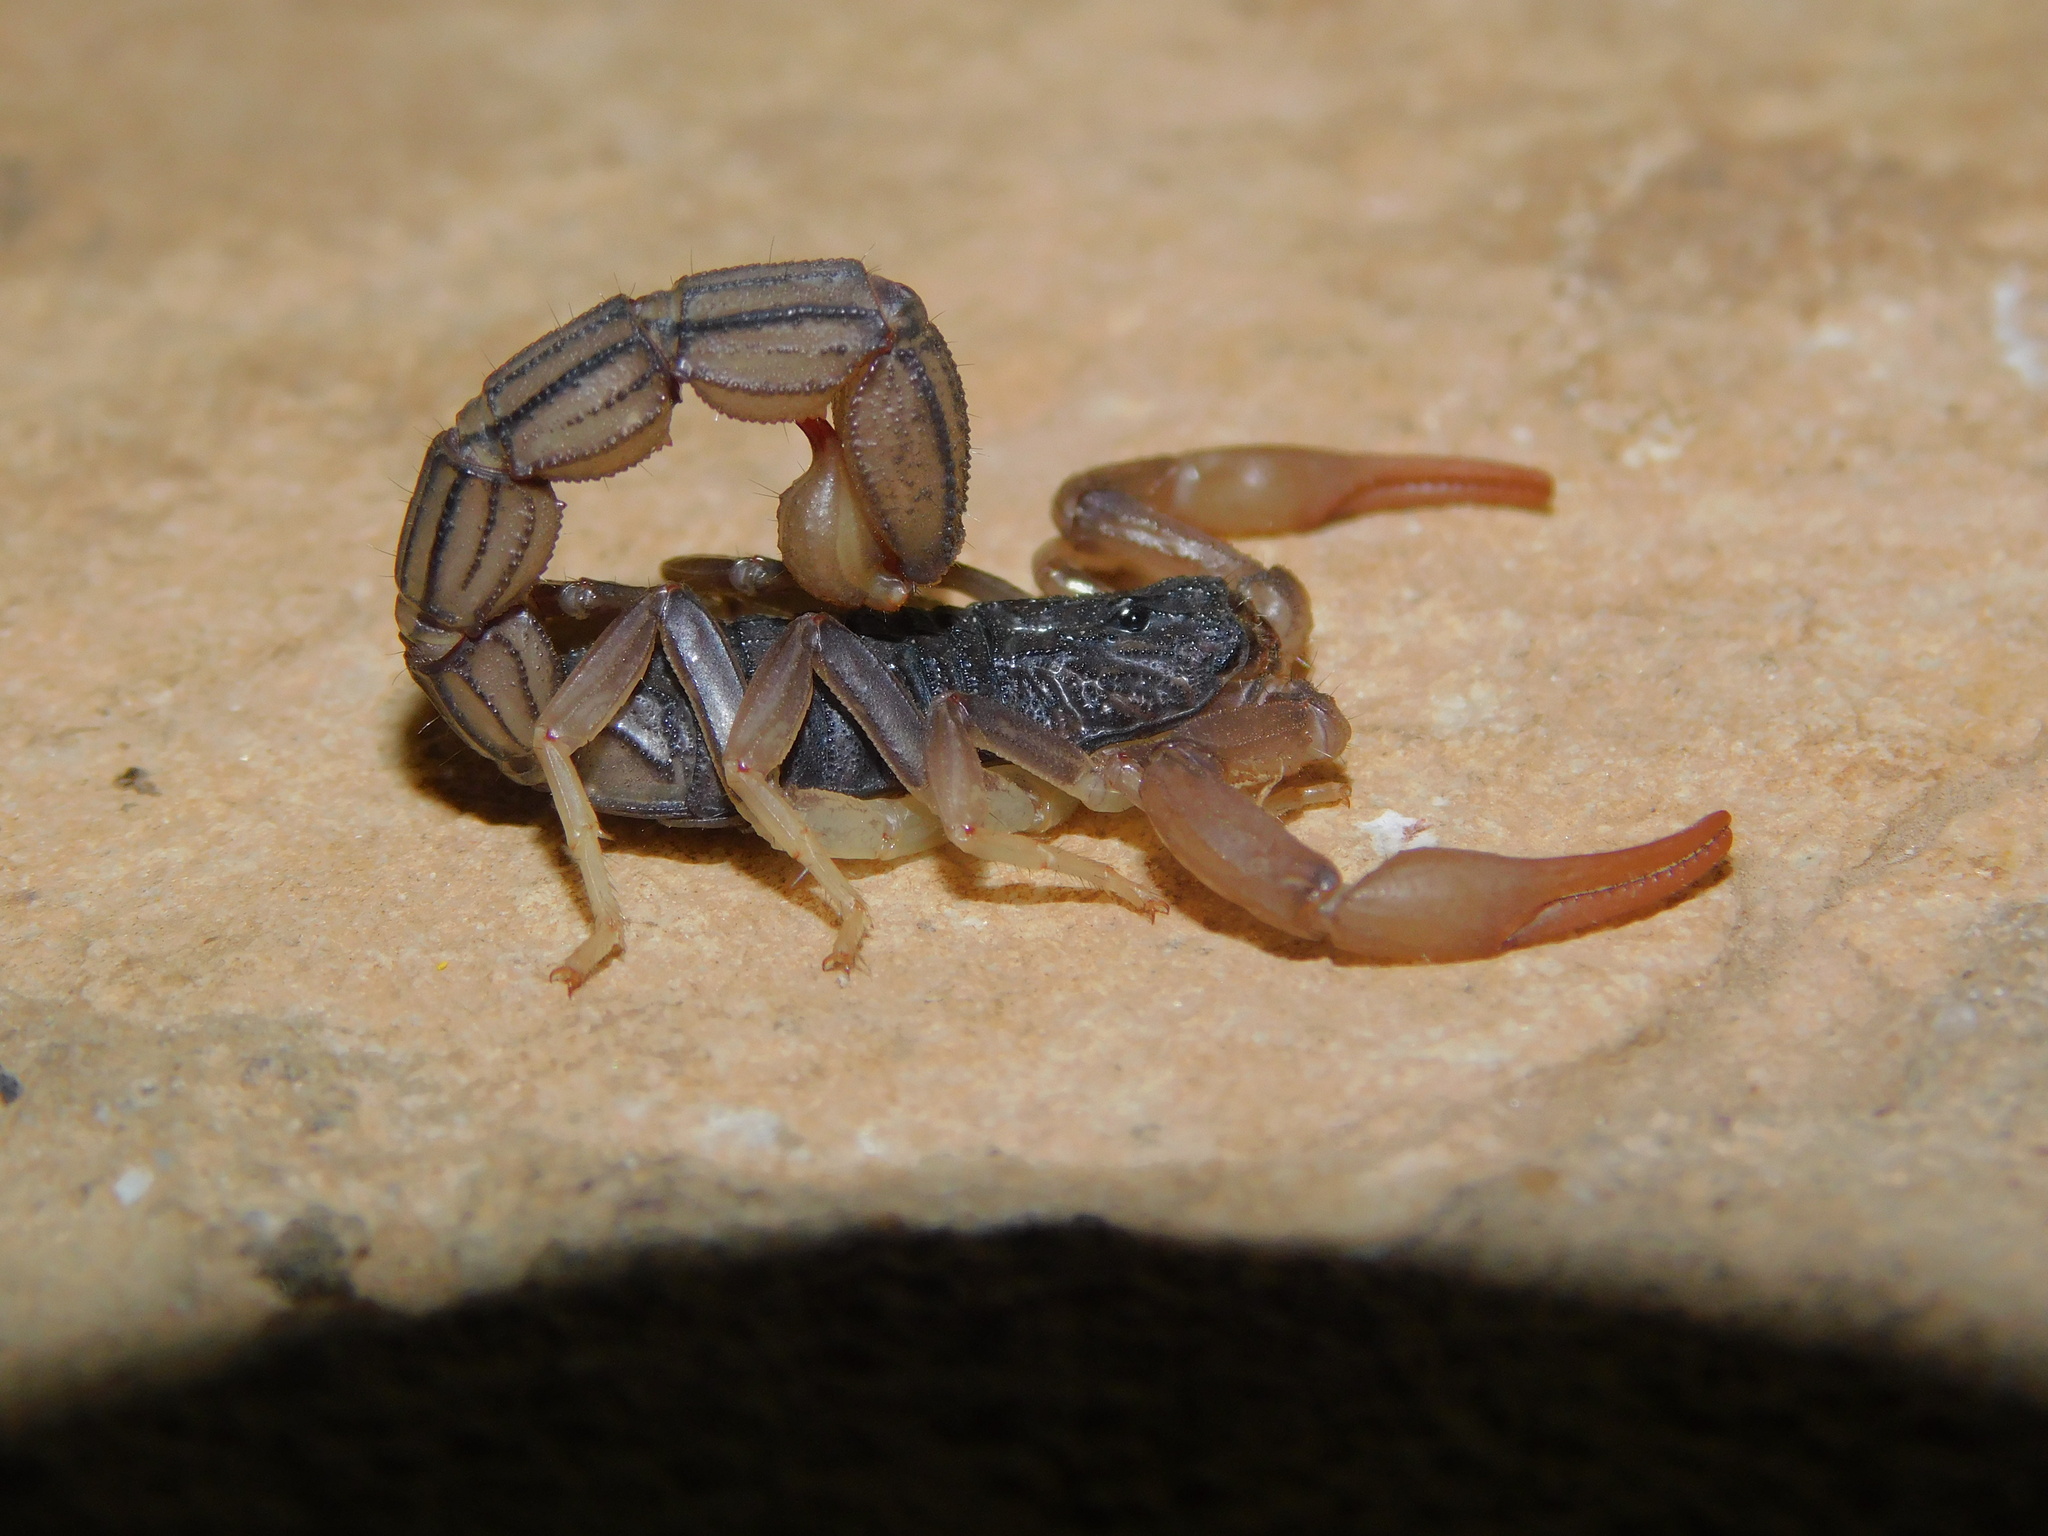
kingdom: Animalia
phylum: Arthropoda
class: Arachnida
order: Scorpiones
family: Buthidae
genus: Hottentotta
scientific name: Hottentotta ugandaensis
